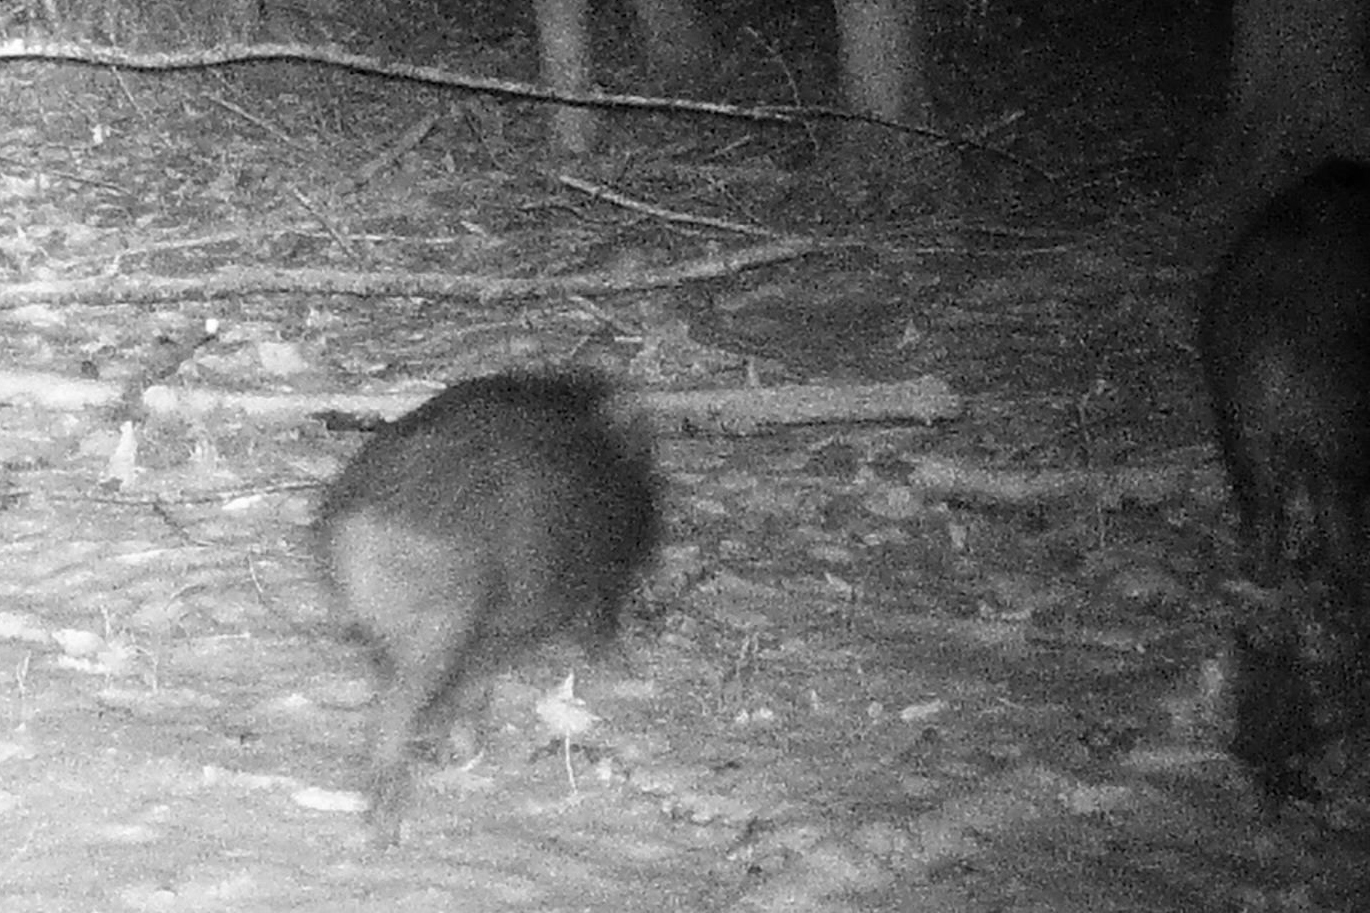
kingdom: Animalia
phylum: Chordata
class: Mammalia
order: Artiodactyla
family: Suidae
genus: Sus
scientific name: Sus scrofa
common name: Wild boar
